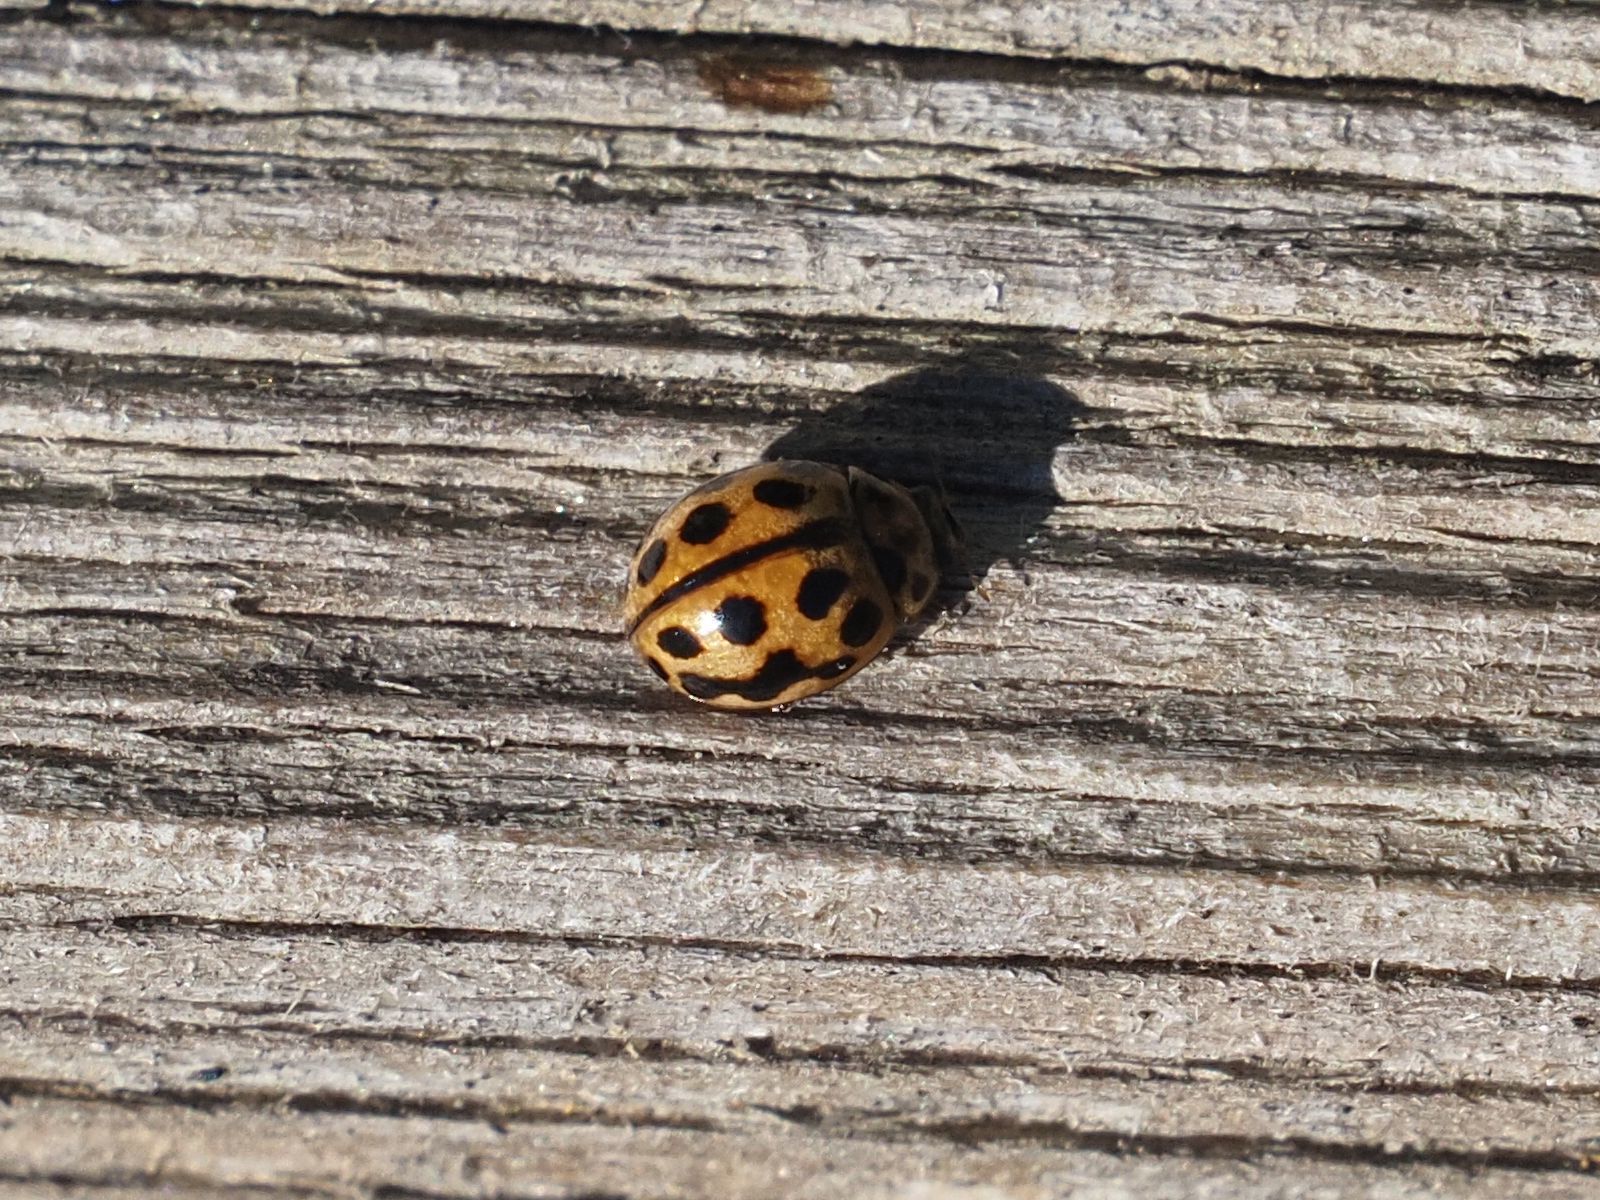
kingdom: Animalia
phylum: Arthropoda
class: Insecta
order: Coleoptera
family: Coccinellidae
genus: Tytthaspis
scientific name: Tytthaspis sedecimpunctata
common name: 16-spot ladybird
